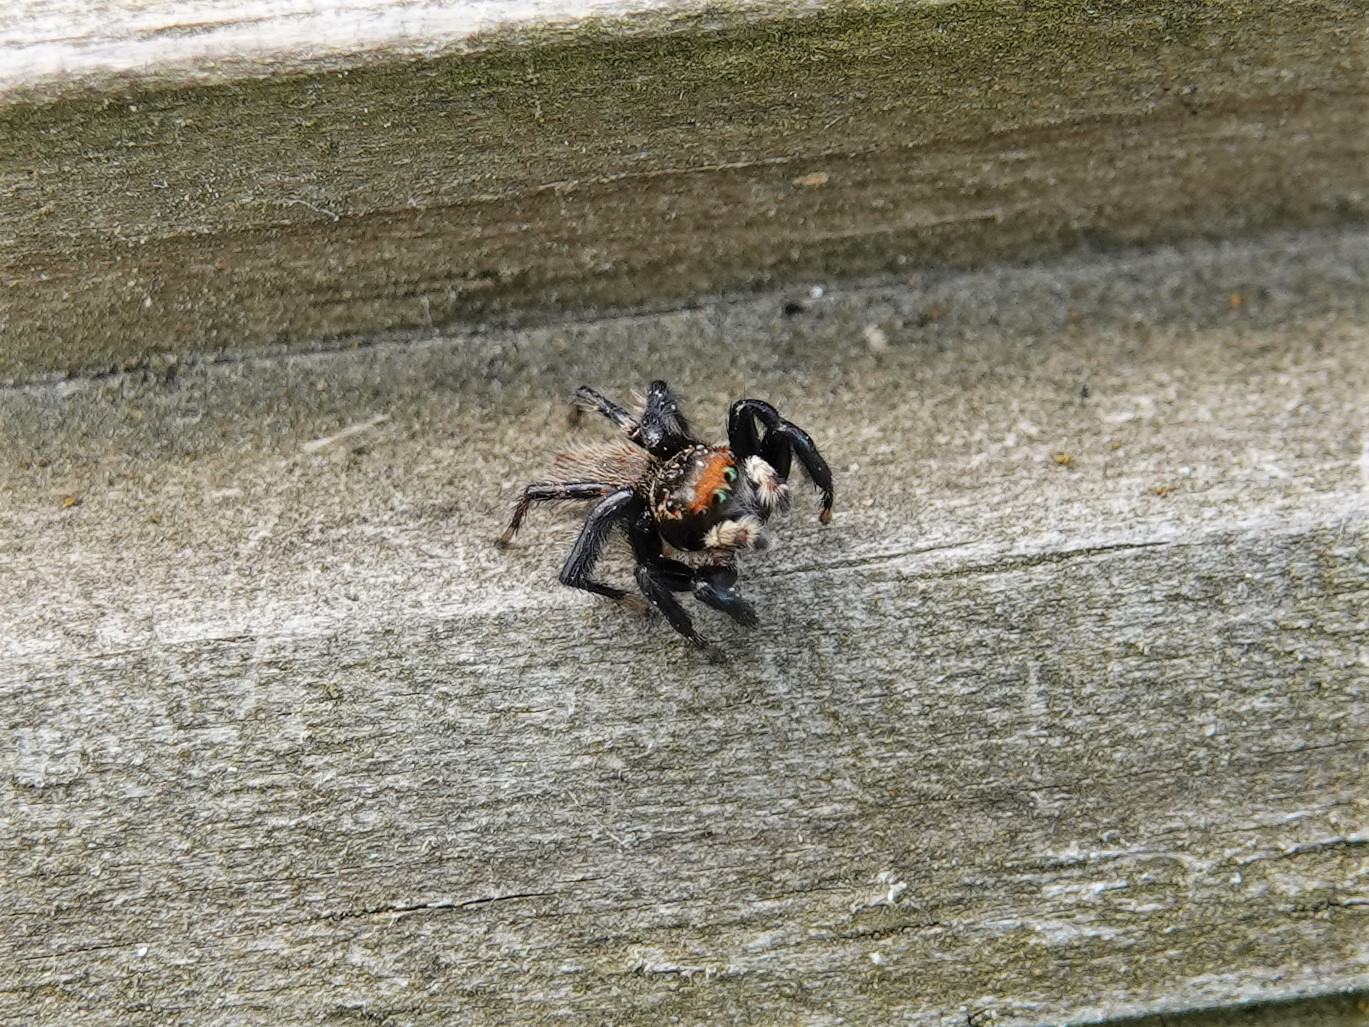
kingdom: Animalia
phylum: Arthropoda
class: Arachnida
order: Araneae
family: Salticidae
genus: Maratus
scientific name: Maratus griseus
